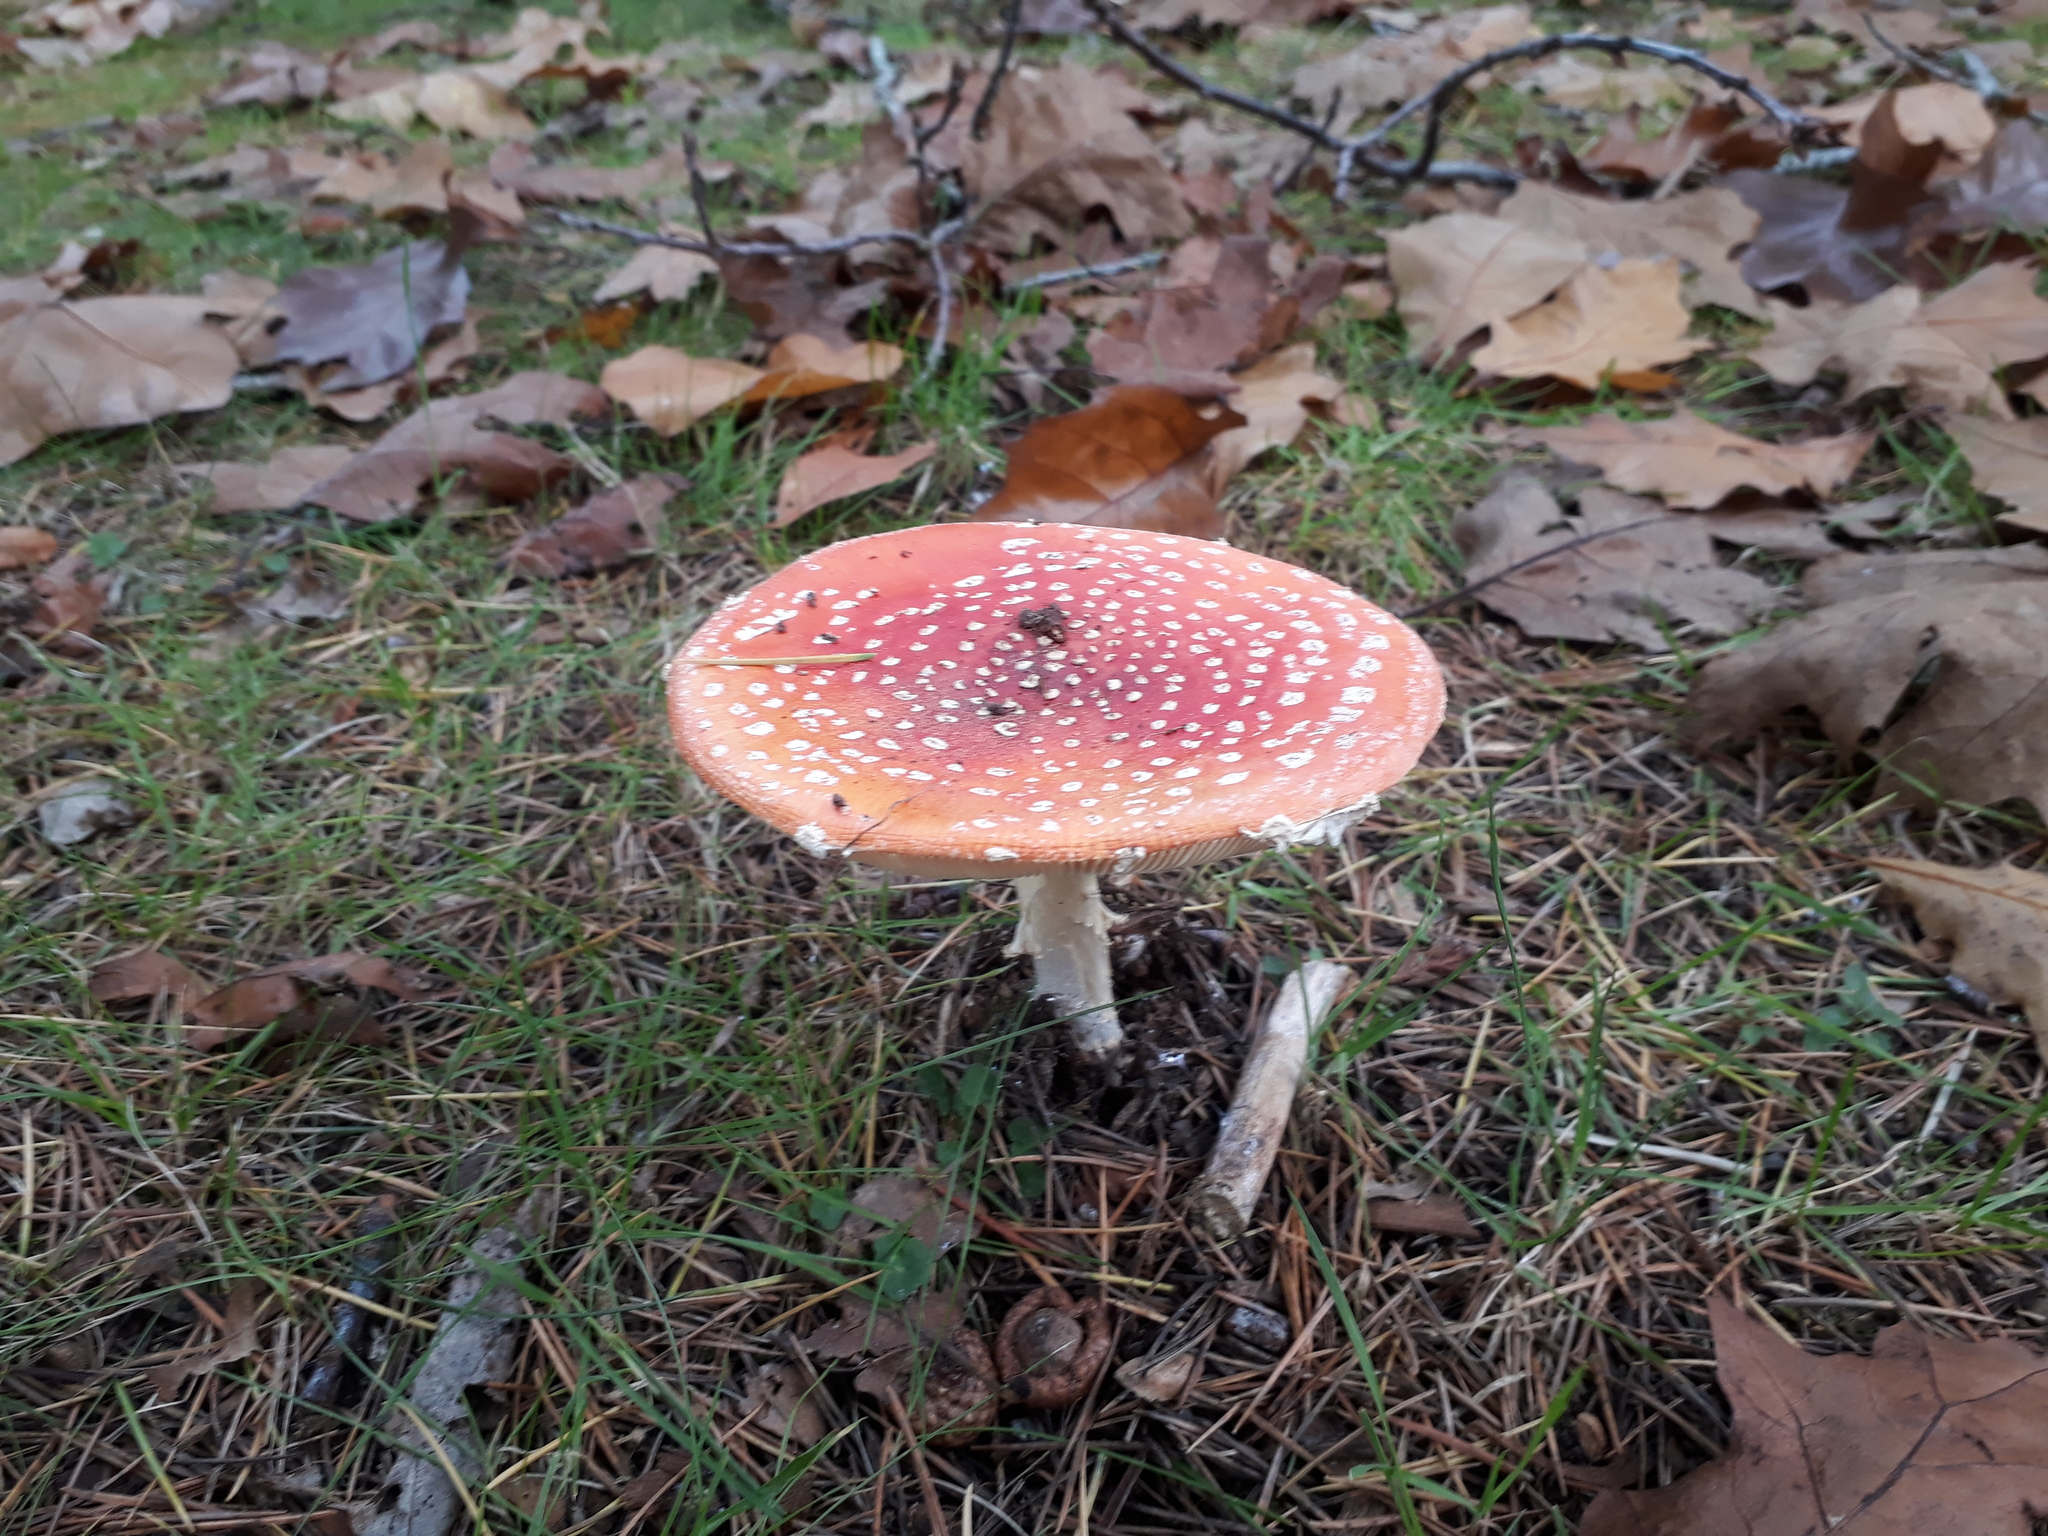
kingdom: Fungi
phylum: Basidiomycota
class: Agaricomycetes
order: Agaricales
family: Amanitaceae
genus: Amanita
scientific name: Amanita muscaria
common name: Fly agaric
